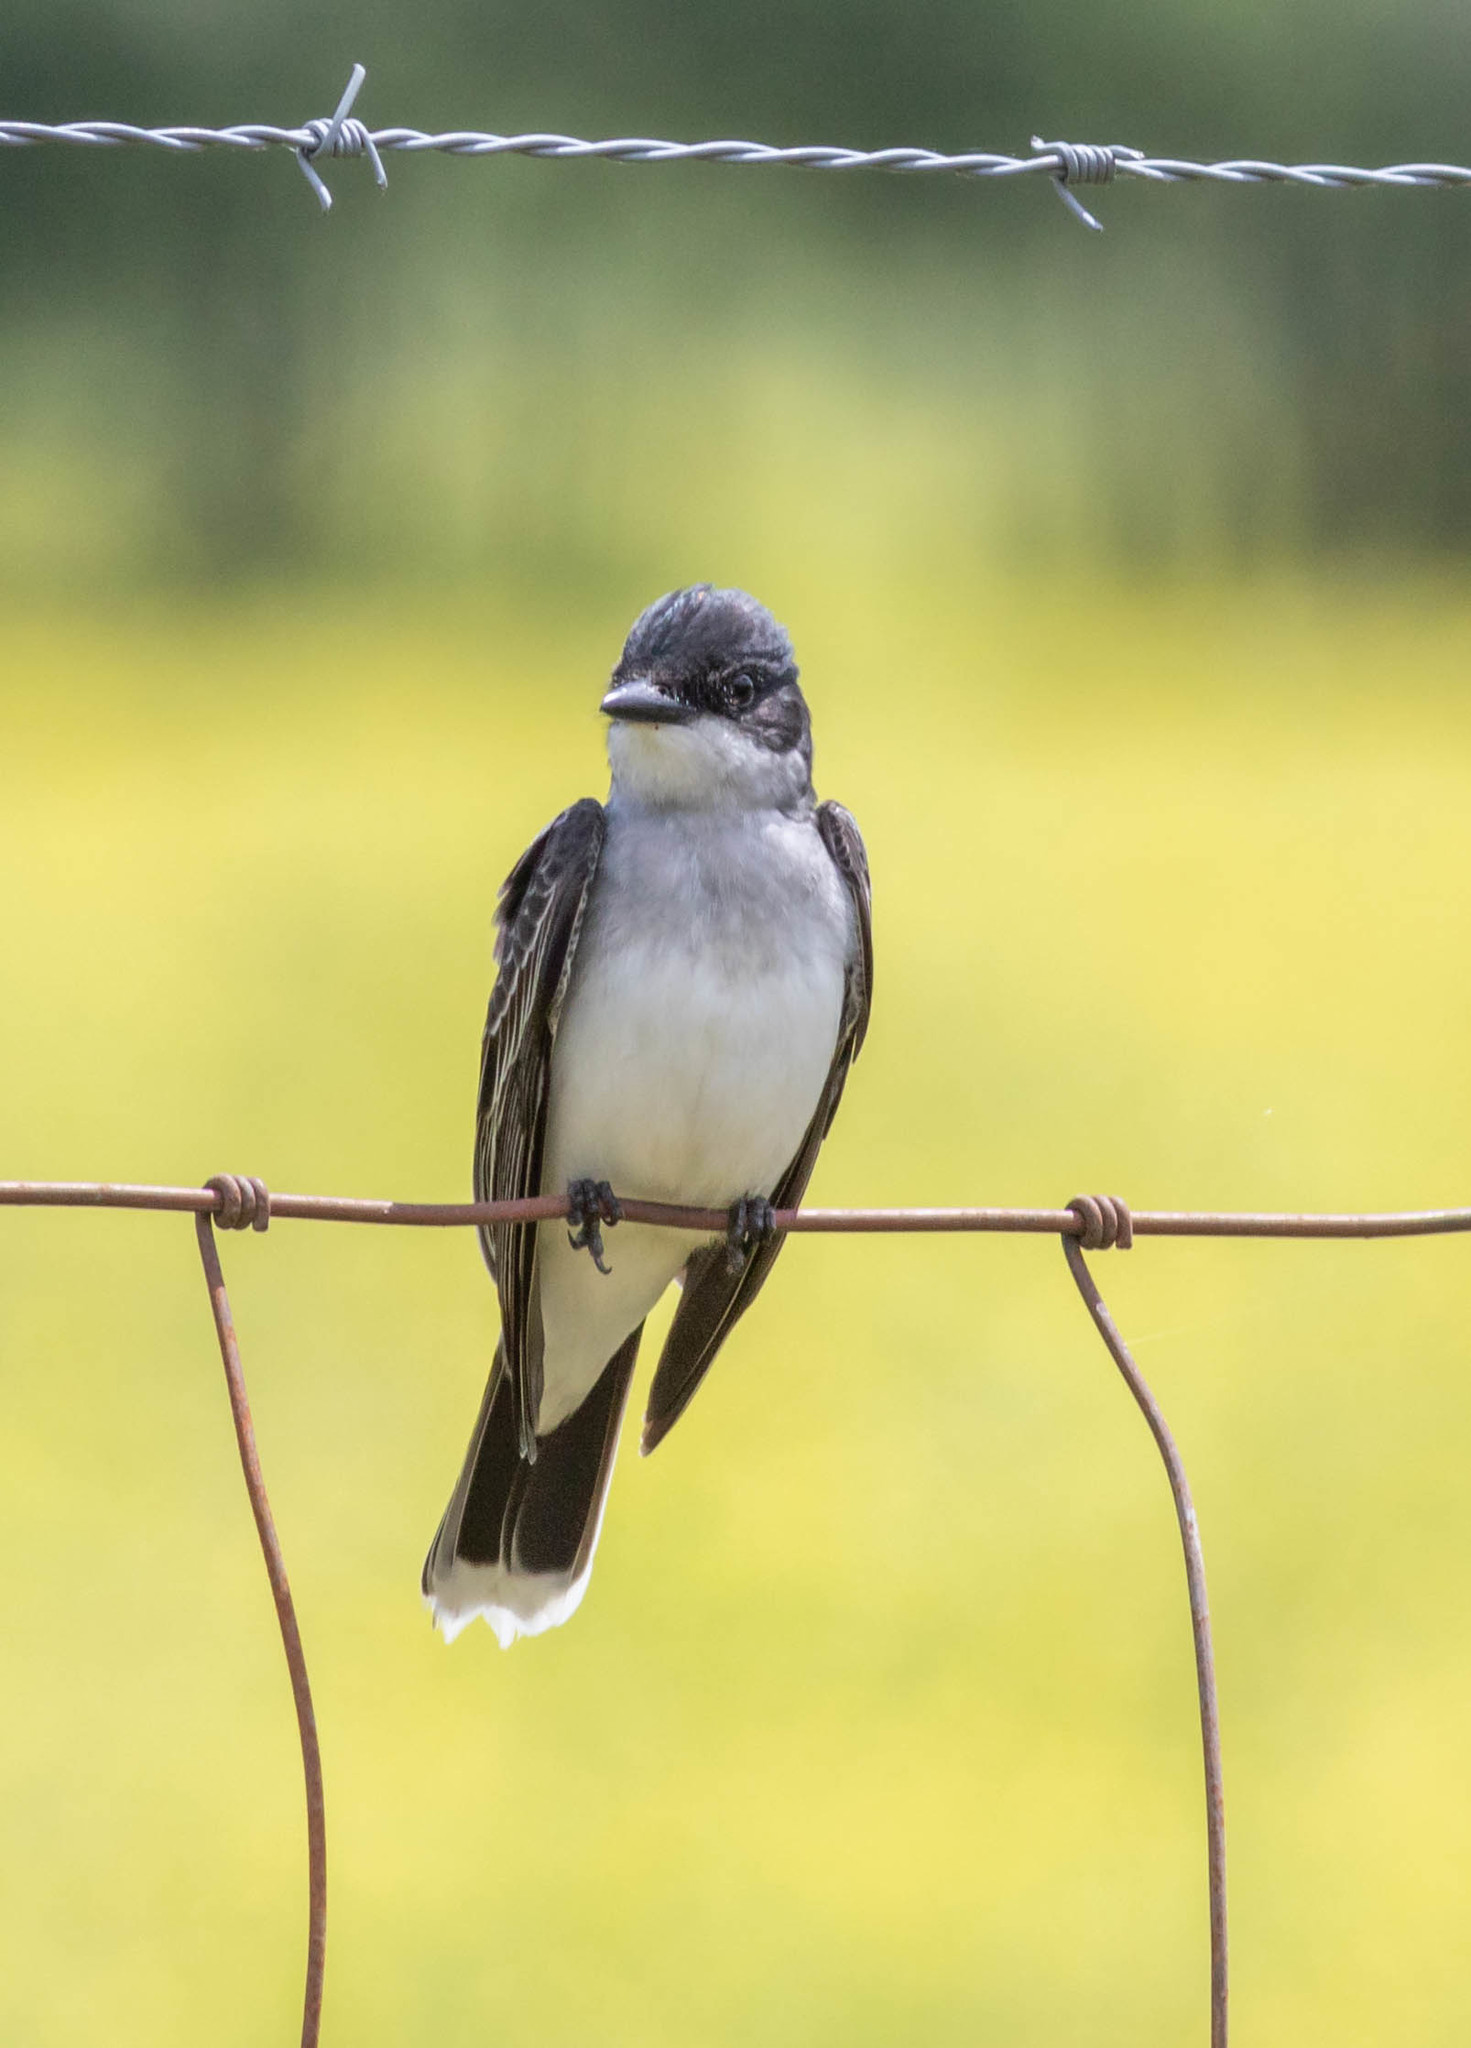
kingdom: Animalia
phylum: Chordata
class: Aves
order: Passeriformes
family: Tyrannidae
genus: Tyrannus
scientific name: Tyrannus tyrannus
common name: Eastern kingbird
